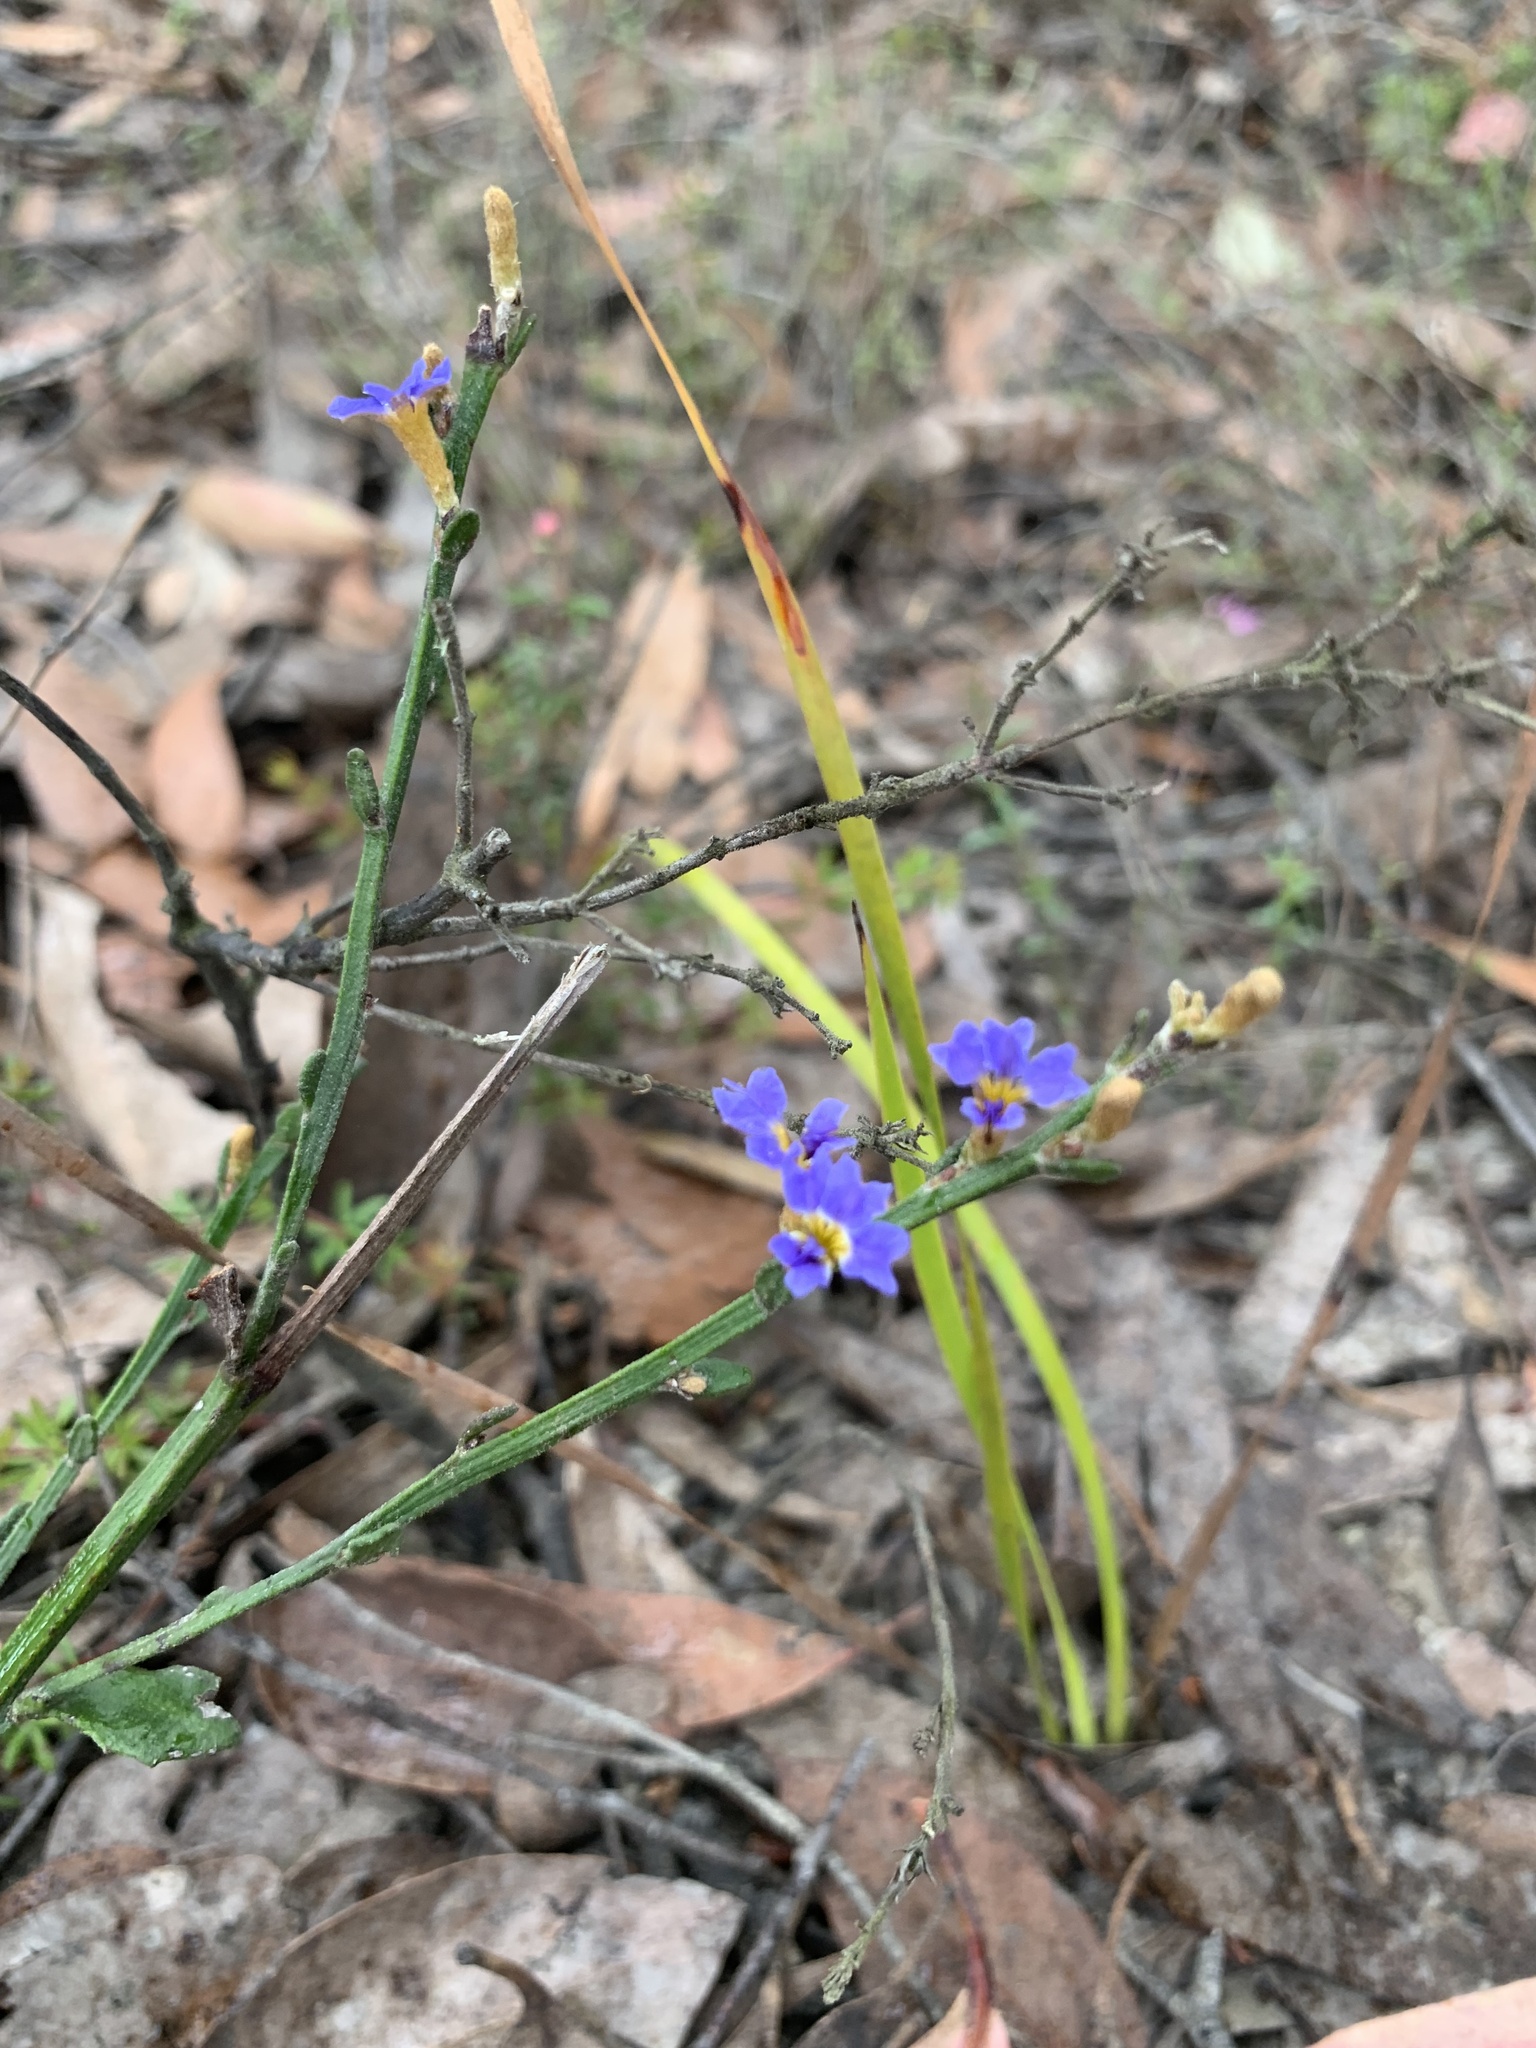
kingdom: Plantae
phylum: Tracheophyta
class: Magnoliopsida
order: Asterales
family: Goodeniaceae
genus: Dampiera
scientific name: Dampiera stricta
